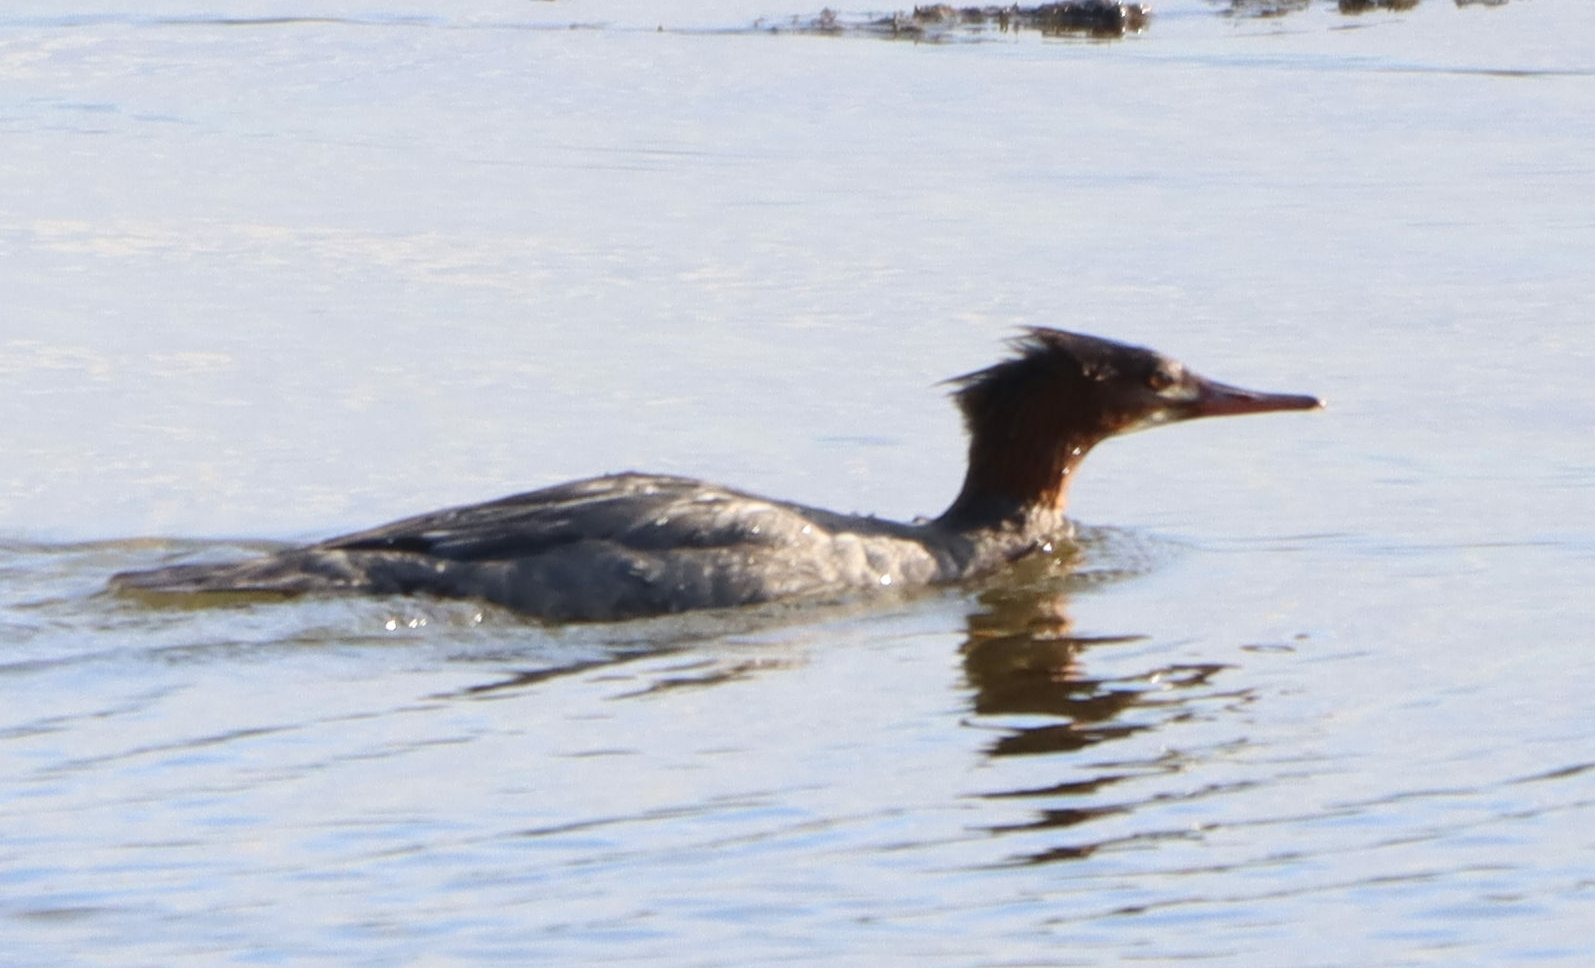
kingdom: Animalia
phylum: Chordata
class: Aves
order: Anseriformes
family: Anatidae
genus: Mergus
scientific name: Mergus merganser
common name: Common merganser
